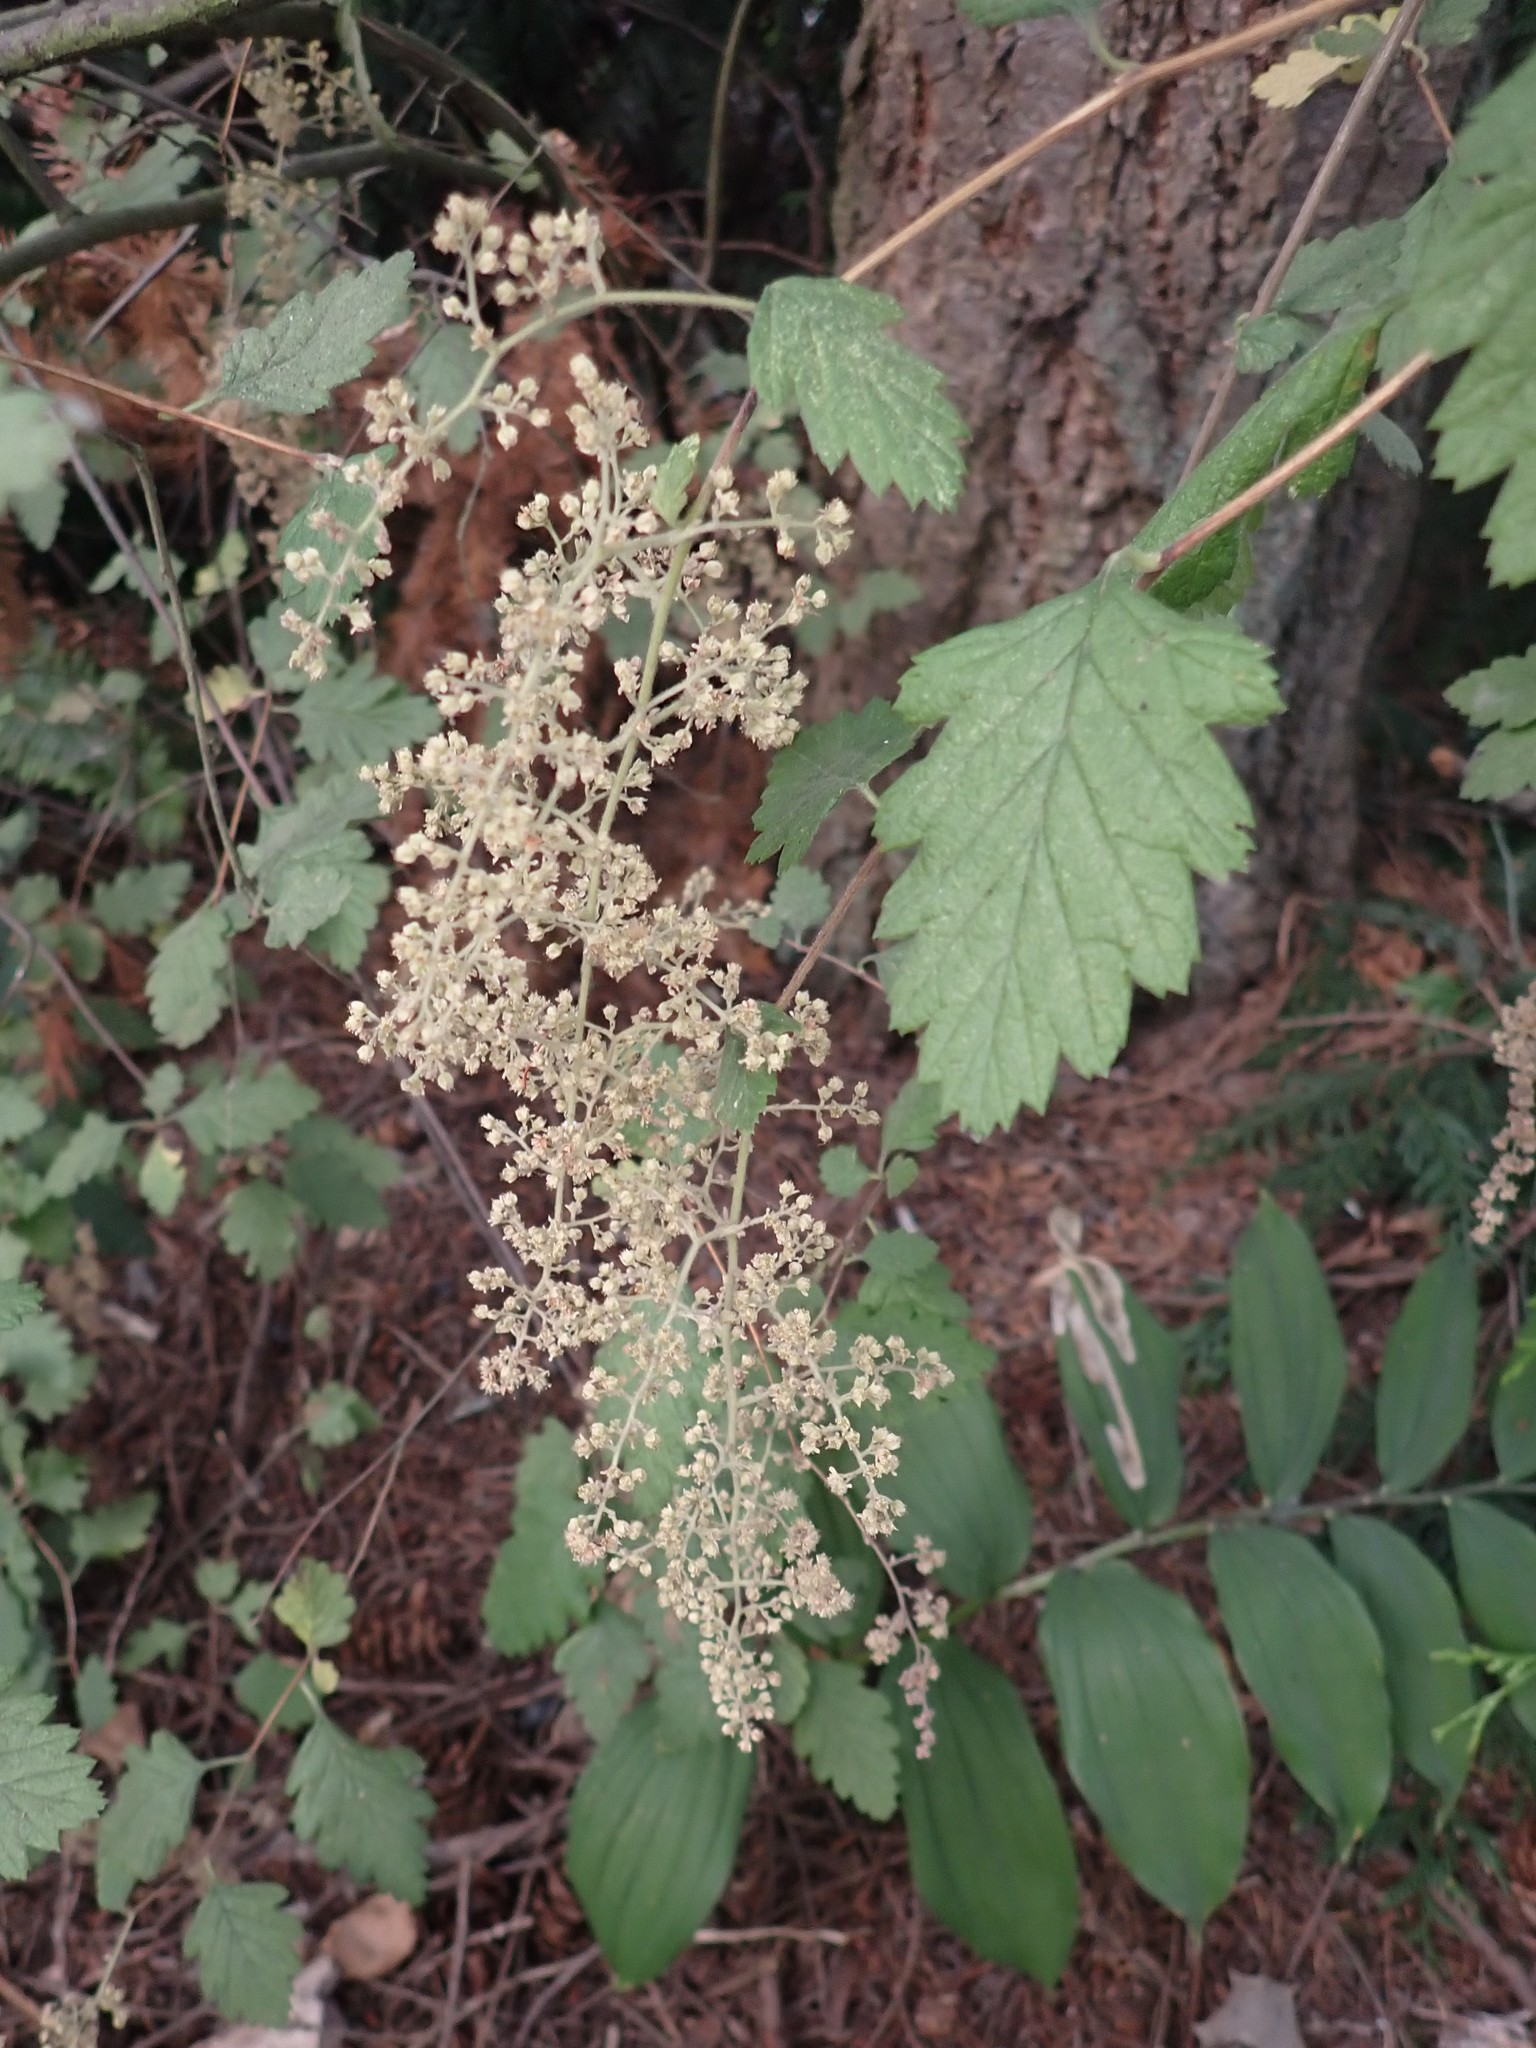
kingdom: Plantae
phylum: Tracheophyta
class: Magnoliopsida
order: Rosales
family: Rosaceae
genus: Holodiscus
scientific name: Holodiscus discolor
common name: Oceanspray
